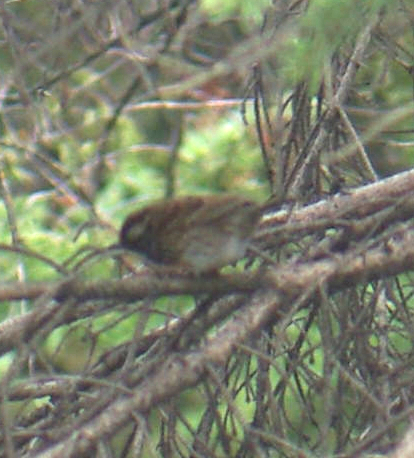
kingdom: Animalia
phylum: Chordata
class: Aves
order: Passeriformes
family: Passerellidae
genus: Zonotrichia
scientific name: Zonotrichia albicollis
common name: White-throated sparrow
